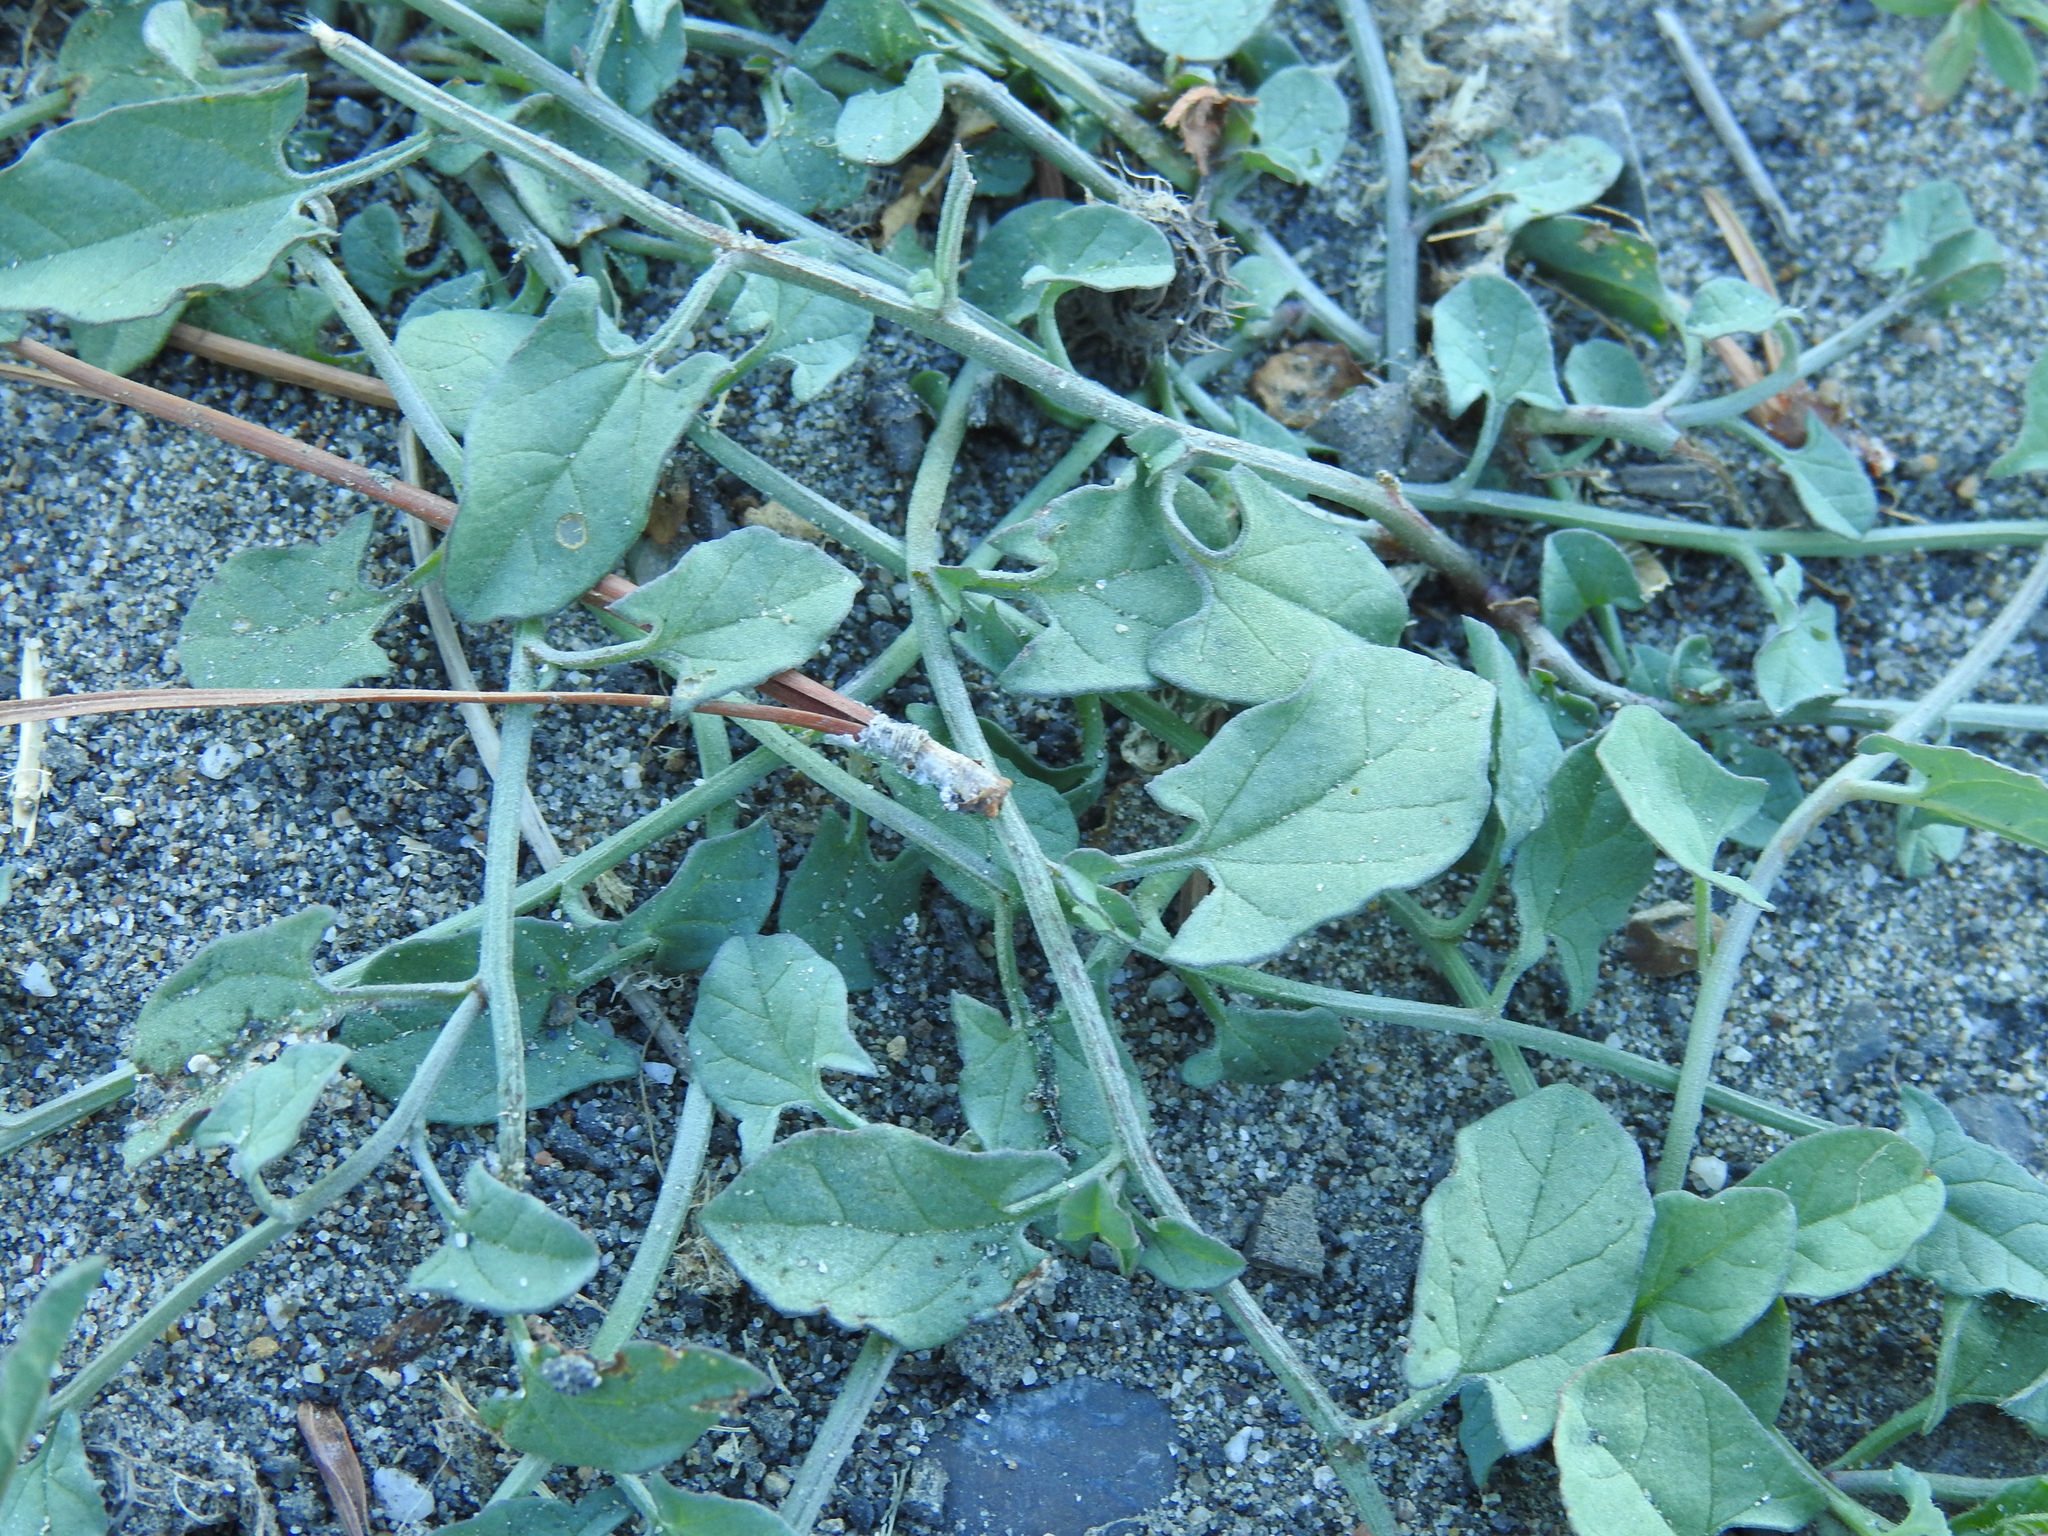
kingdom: Plantae
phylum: Tracheophyta
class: Magnoliopsida
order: Solanales
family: Convolvulaceae
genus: Convolvulus
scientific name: Convolvulus arvensis
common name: Field bindweed
